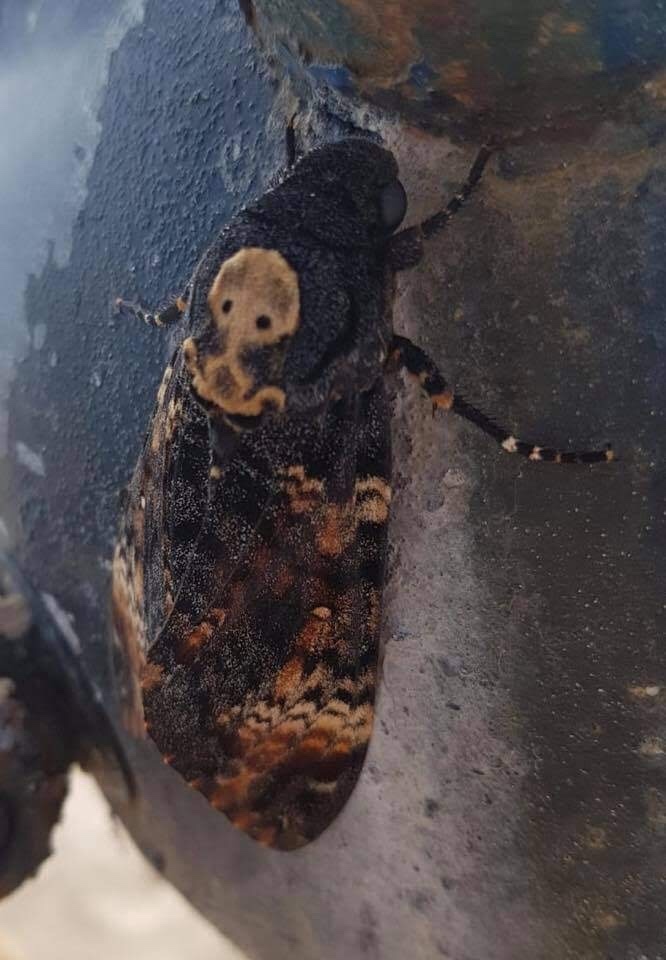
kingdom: Animalia
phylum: Arthropoda
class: Insecta
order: Lepidoptera
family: Sphingidae
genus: Acherontia
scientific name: Acherontia atropos
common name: Death's-head hawk moth
